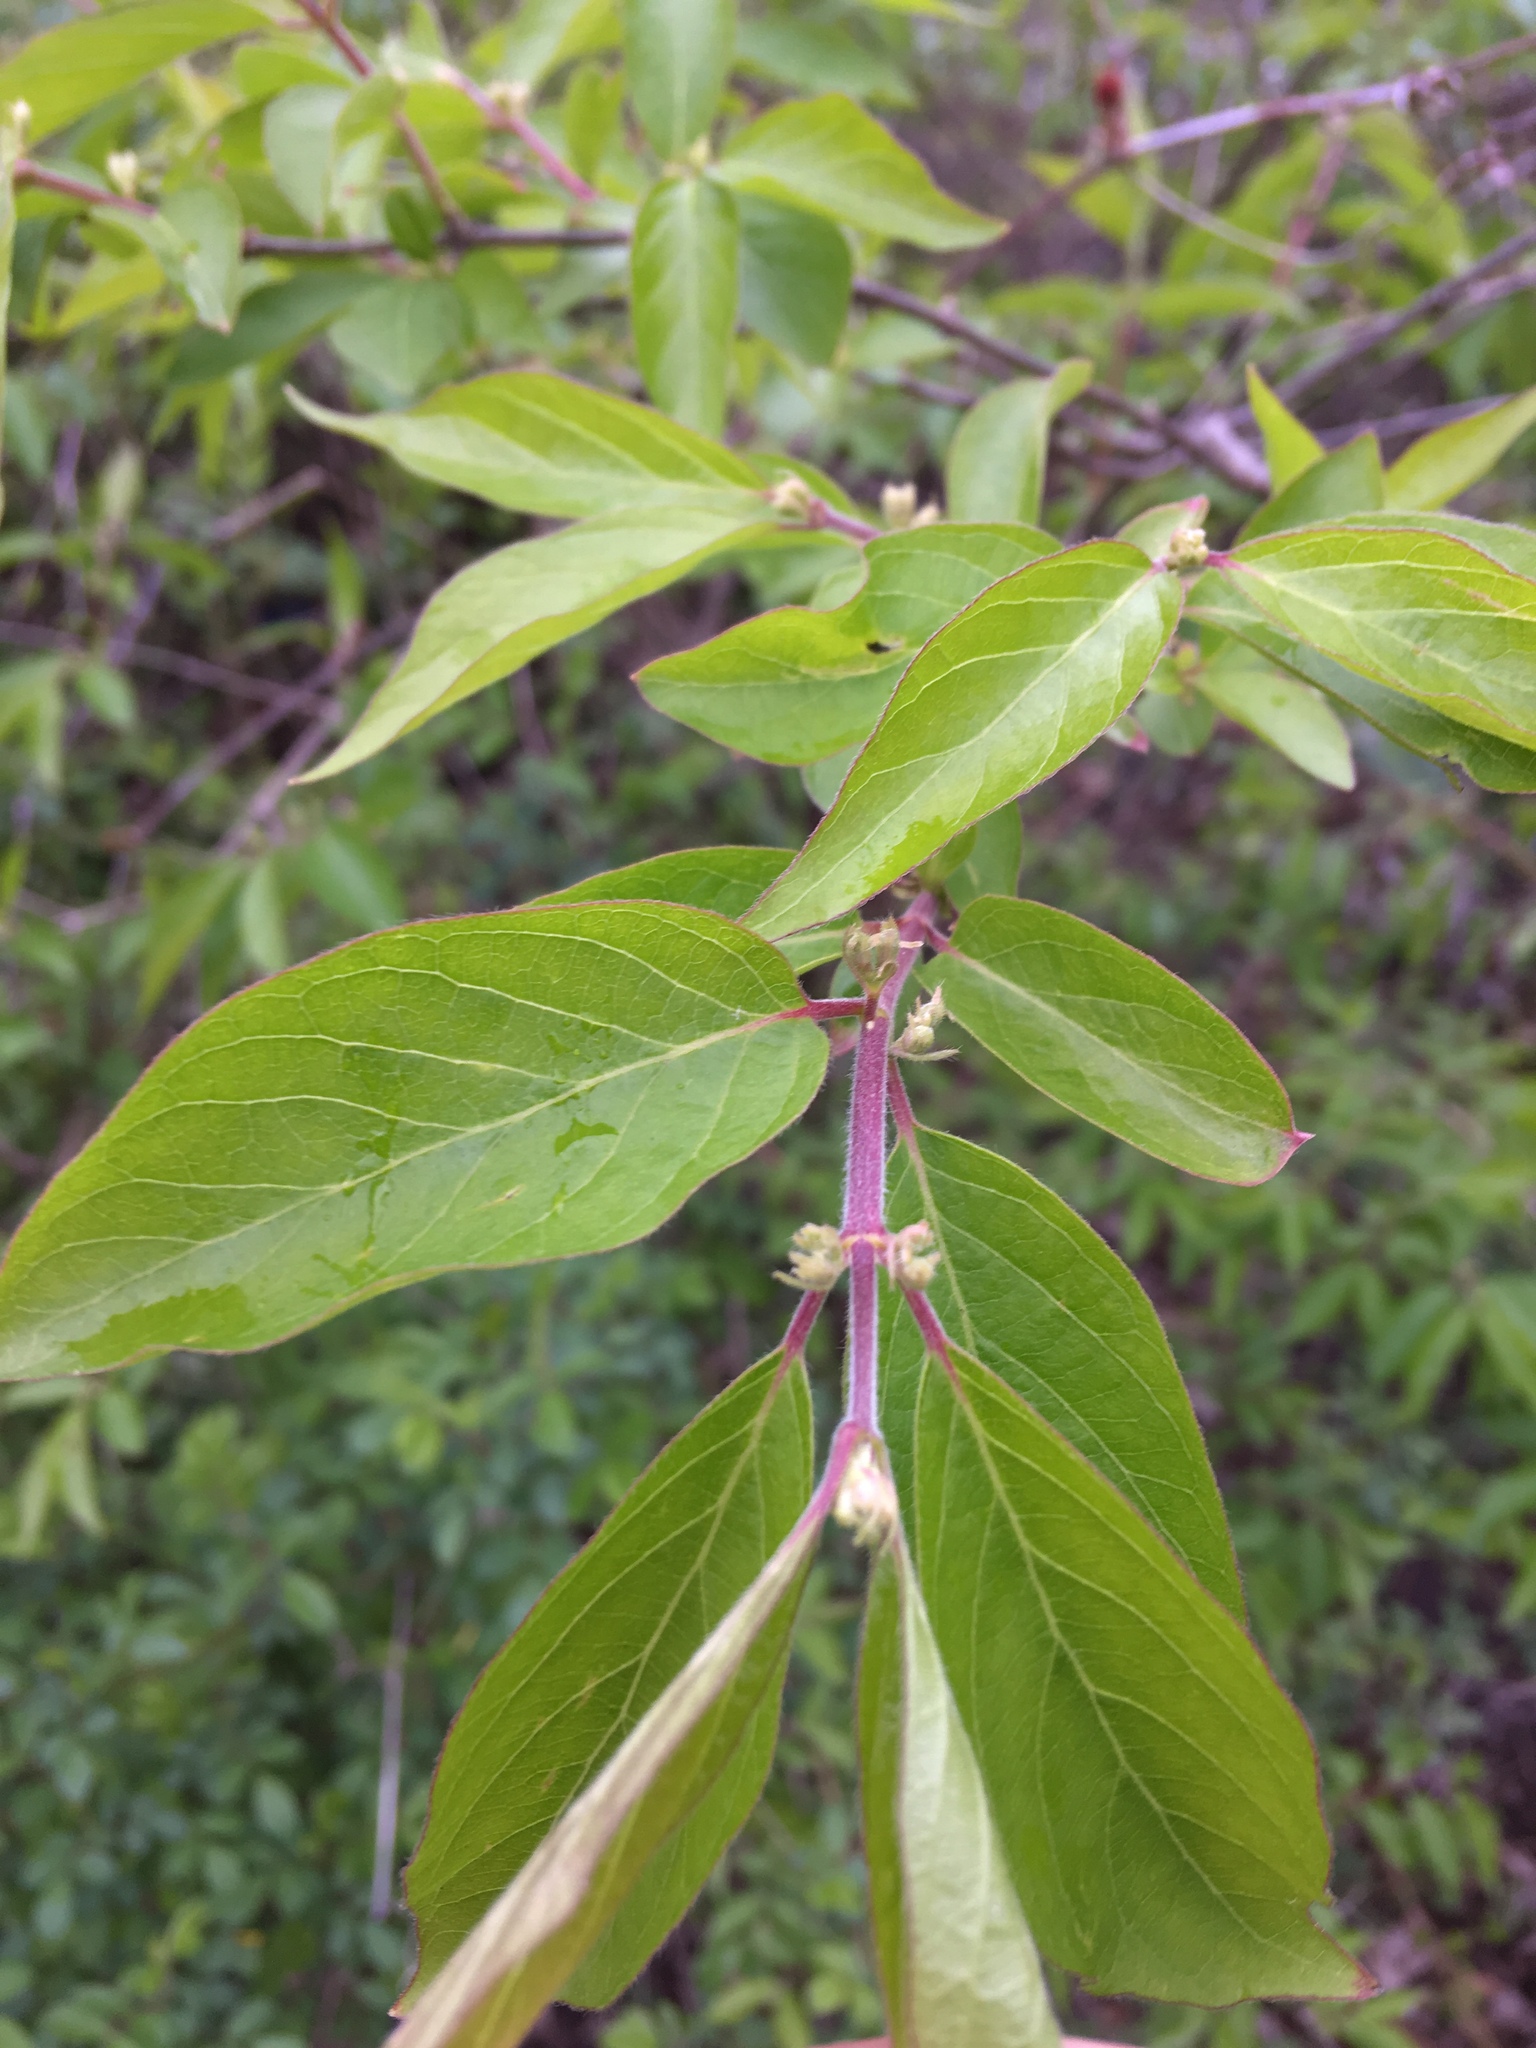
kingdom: Plantae
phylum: Tracheophyta
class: Magnoliopsida
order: Dipsacales
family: Caprifoliaceae
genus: Lonicera
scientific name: Lonicera maackii
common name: Amur honeysuckle
